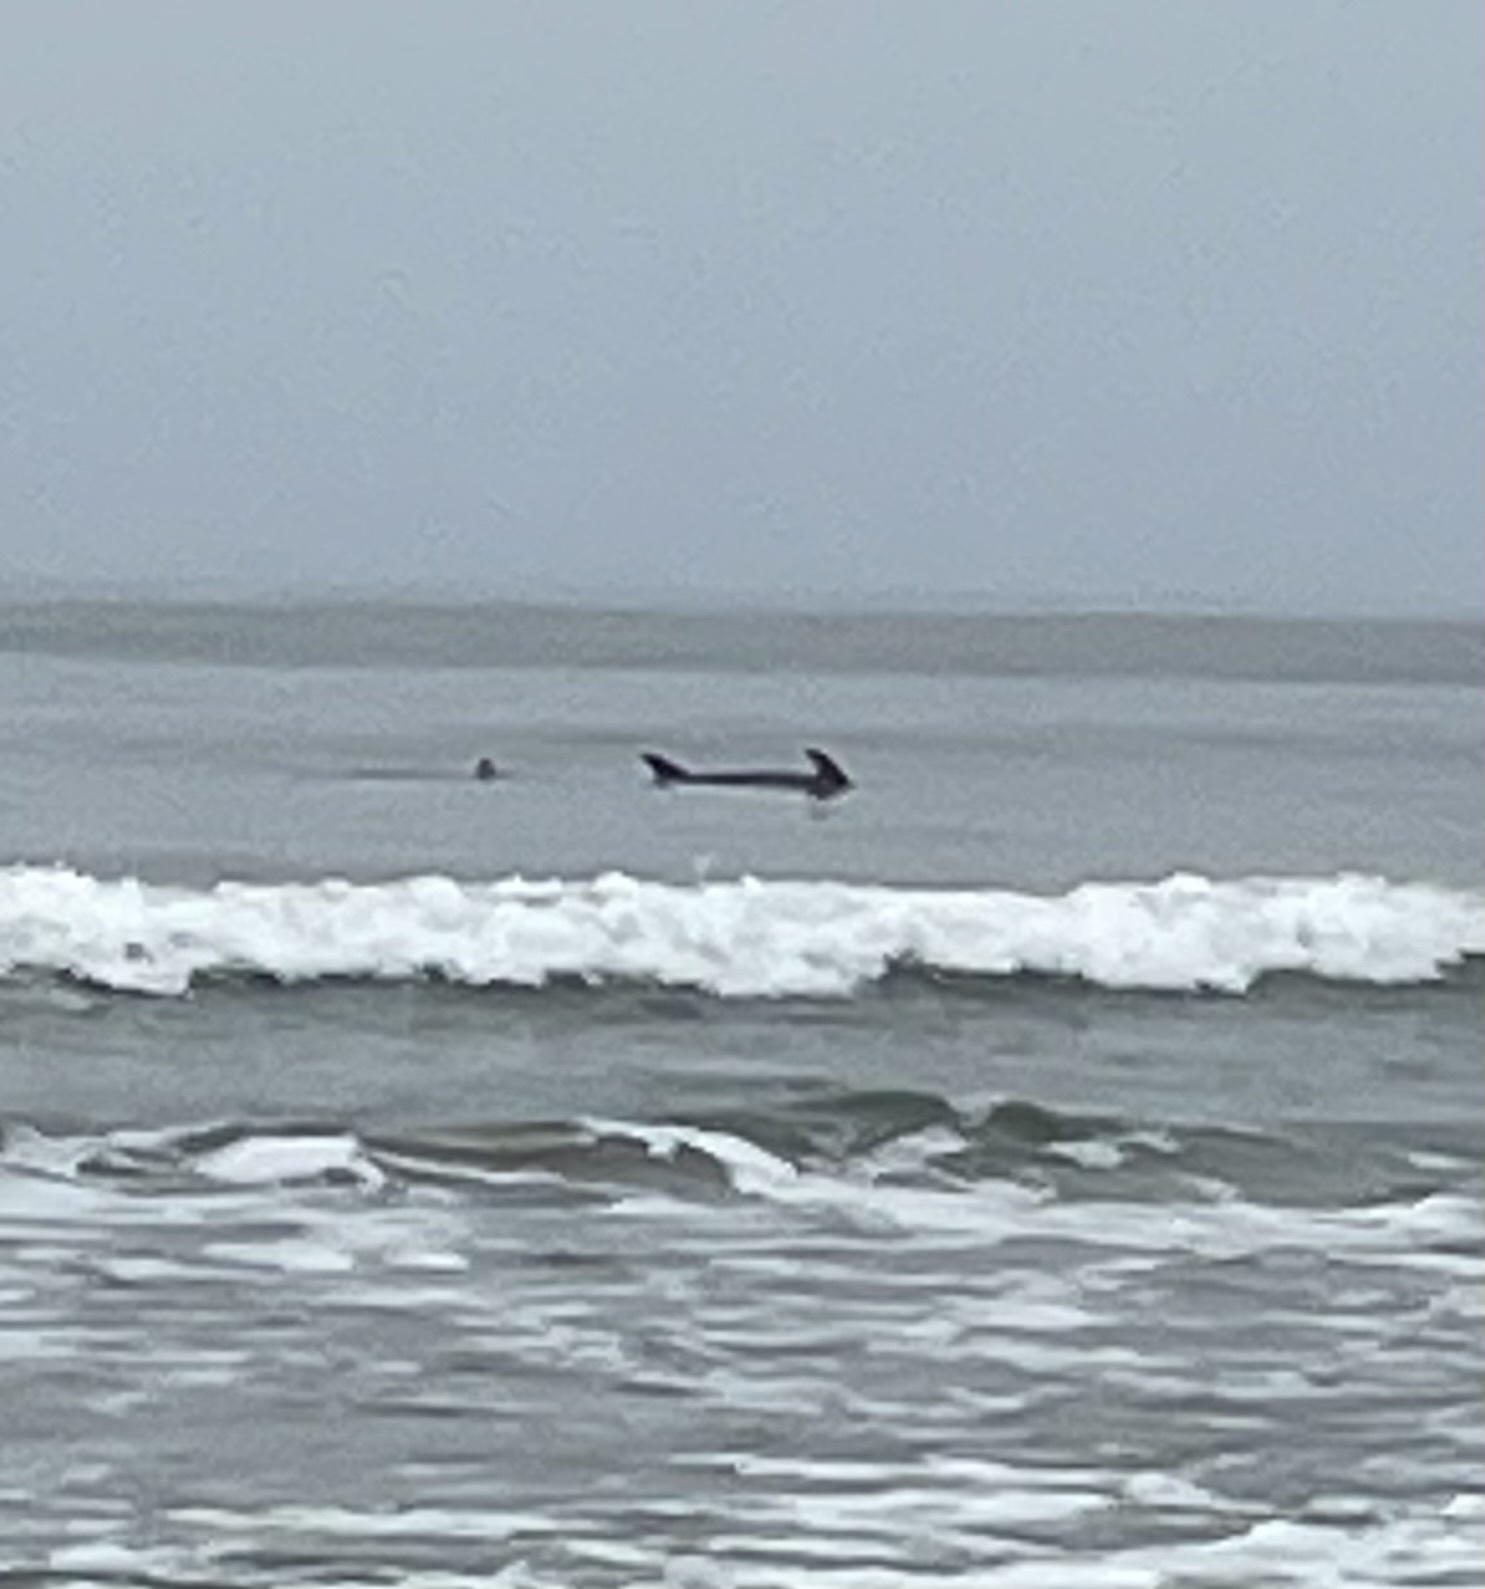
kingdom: Animalia
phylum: Chordata
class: Mammalia
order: Cetacea
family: Delphinidae
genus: Grampus
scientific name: Grampus griseus
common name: Risso's dolphin
